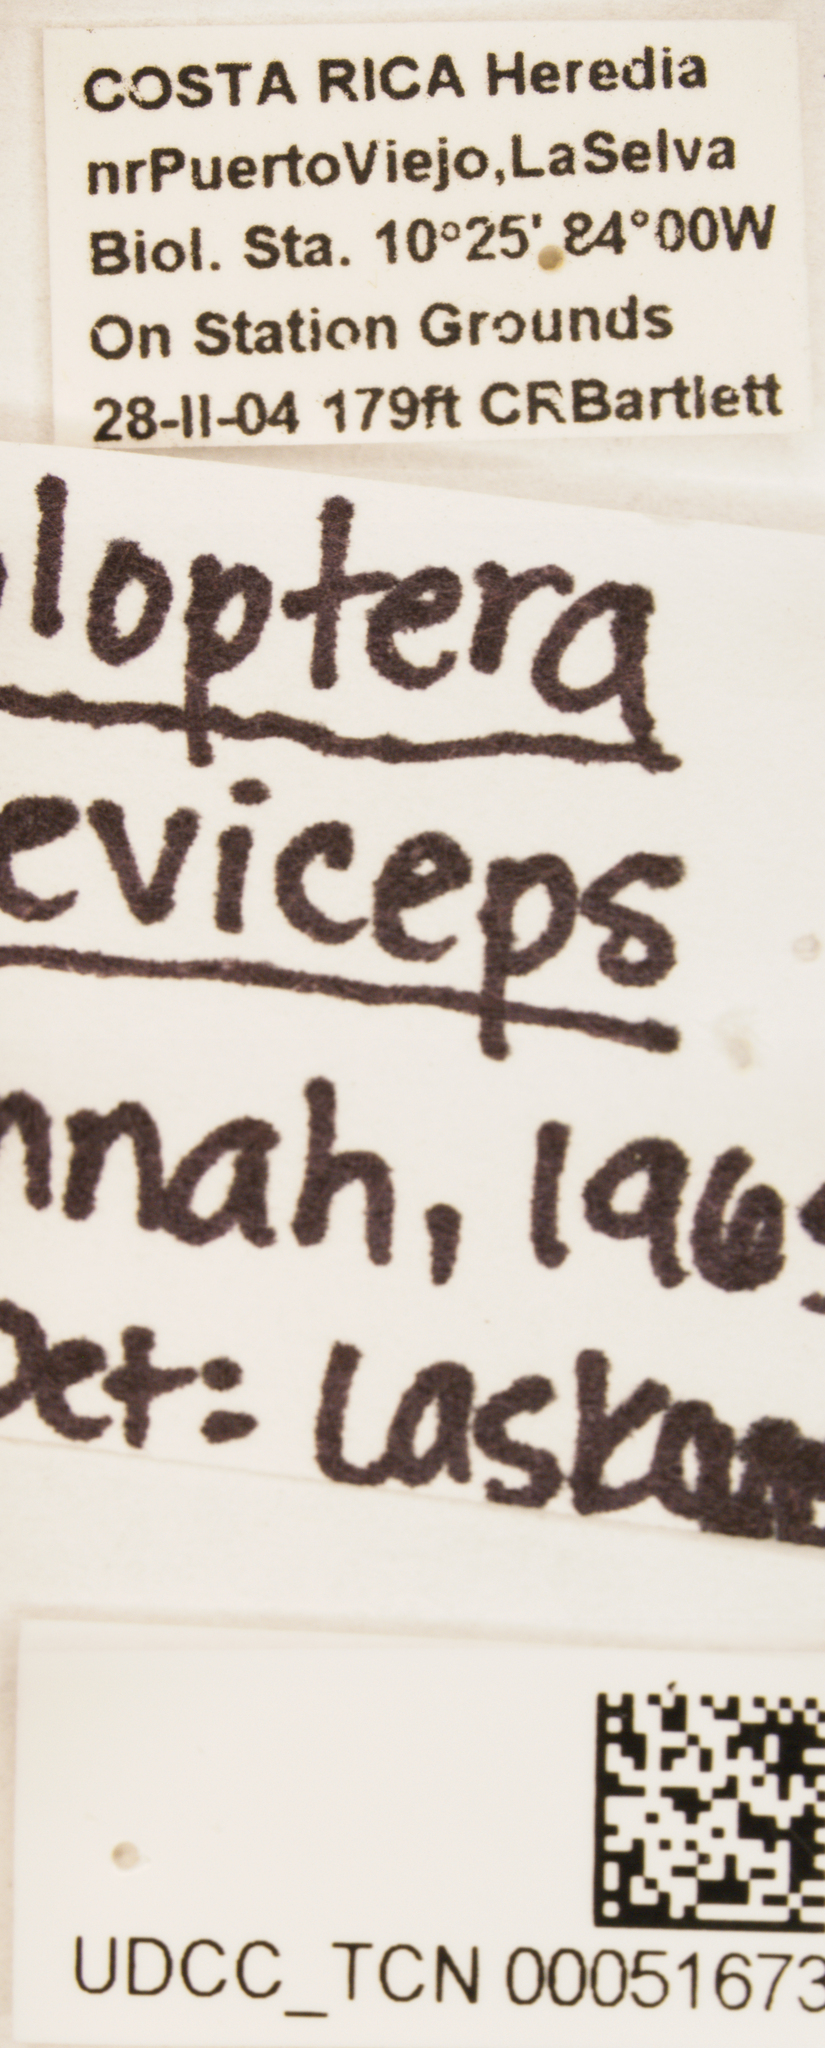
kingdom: Animalia
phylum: Arthropoda
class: Insecta
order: Hemiptera
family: Achilidae
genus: Koloptera
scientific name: Koloptera breviceps
